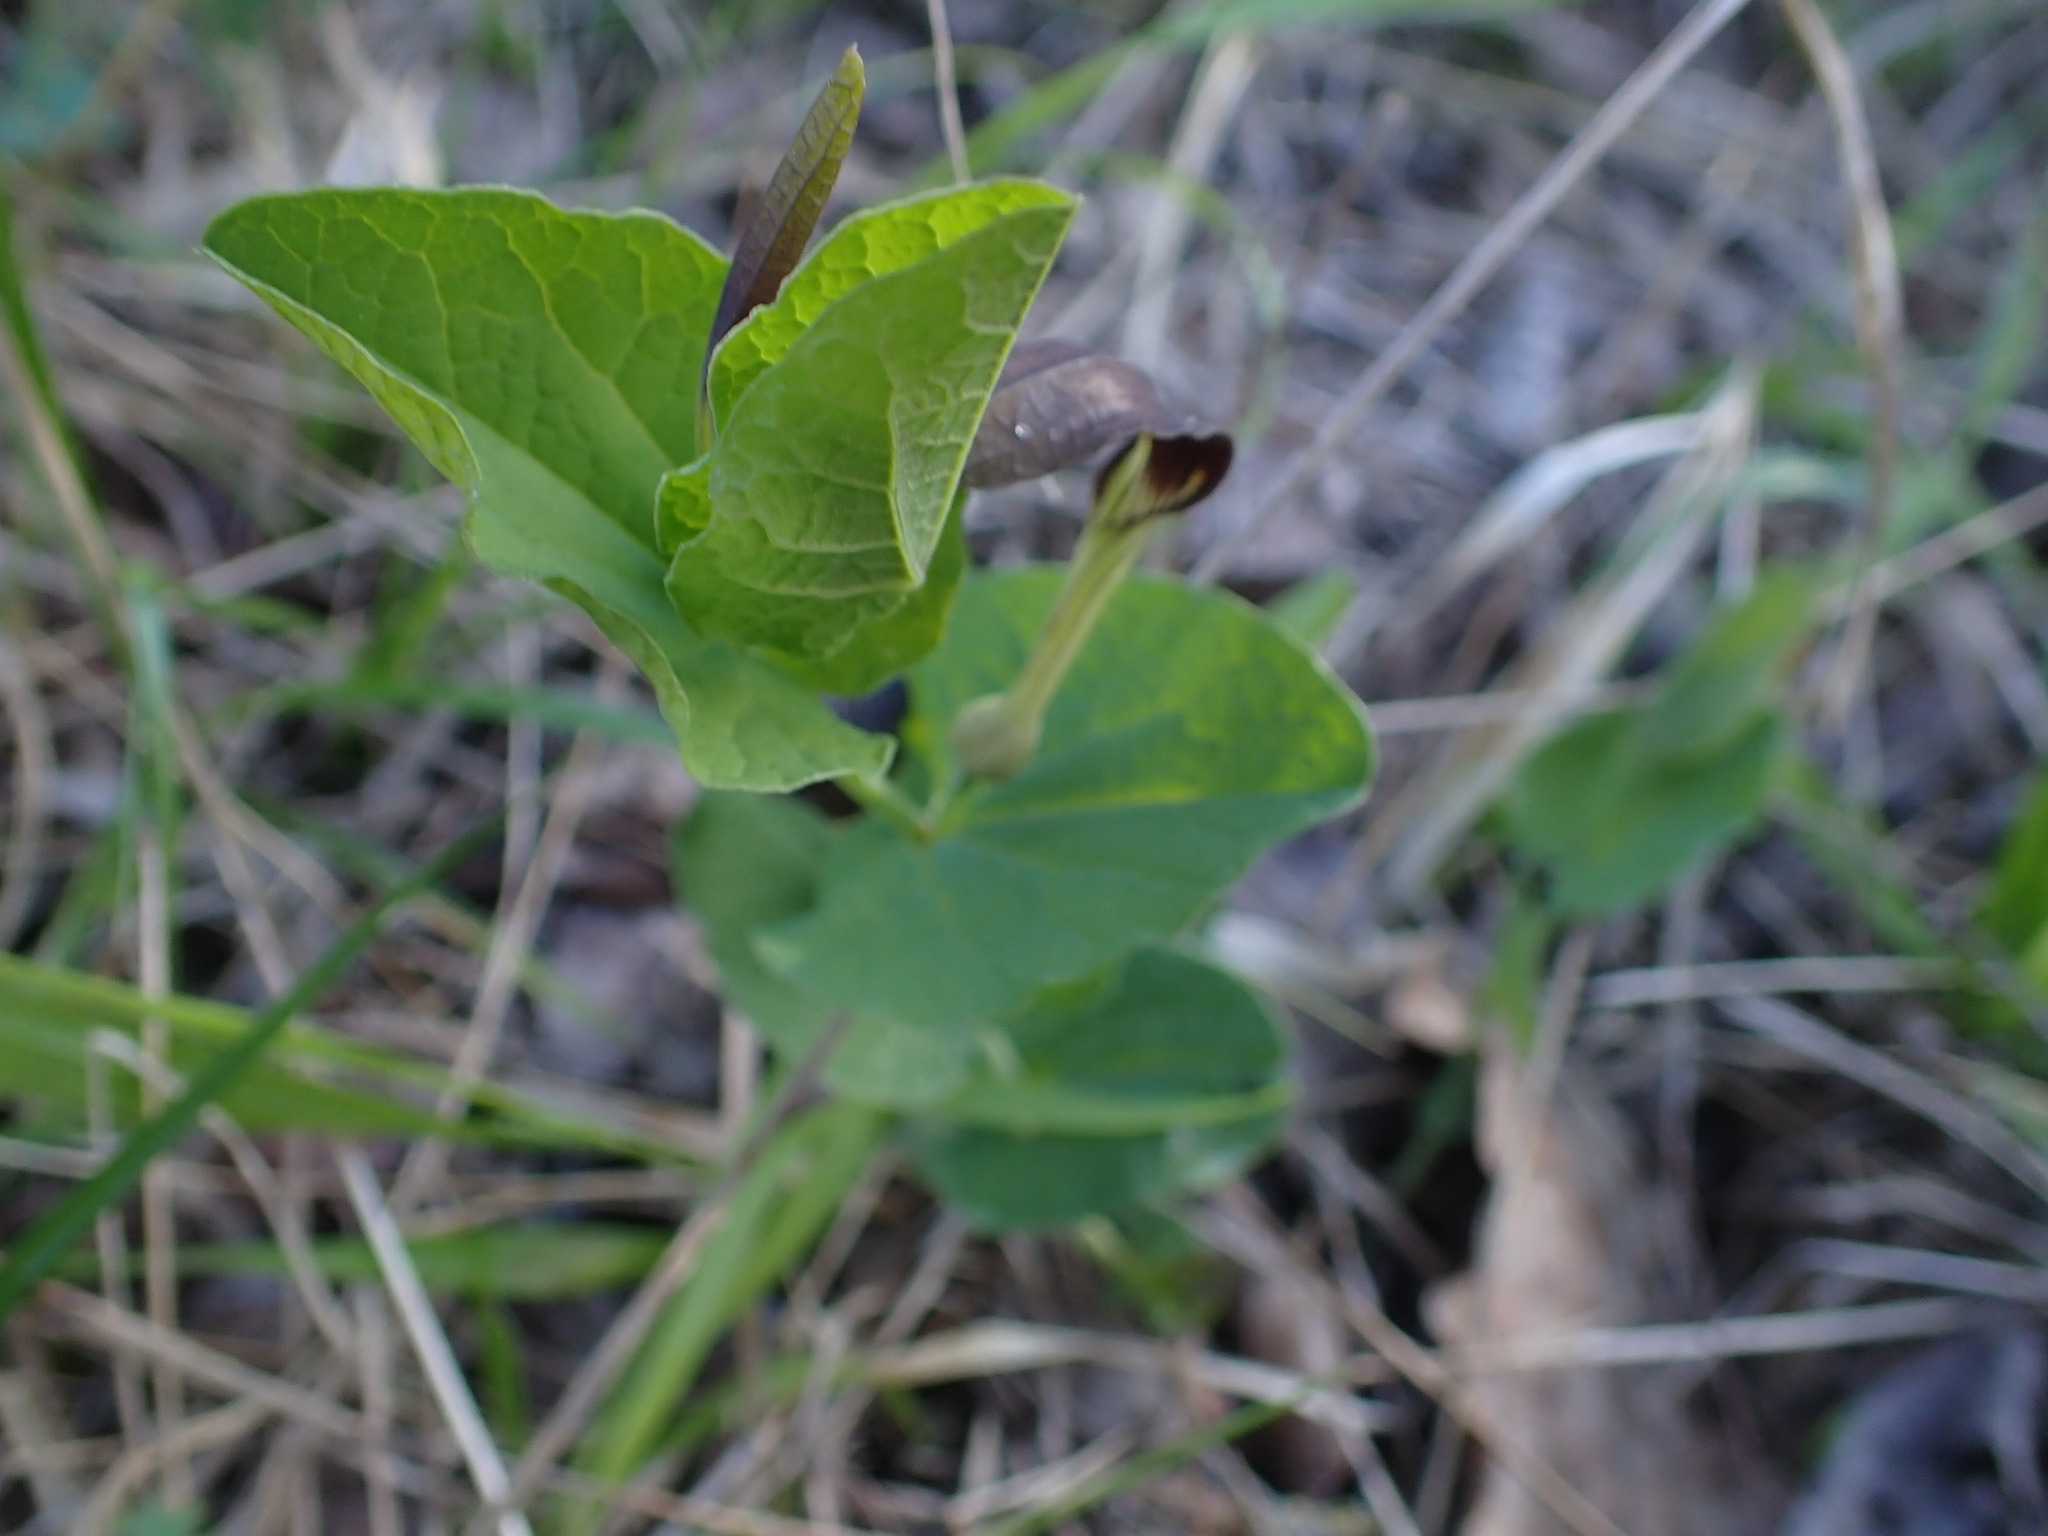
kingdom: Plantae
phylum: Tracheophyta
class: Magnoliopsida
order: Piperales
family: Aristolochiaceae
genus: Aristolochia
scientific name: Aristolochia rotunda
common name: Smearwort
